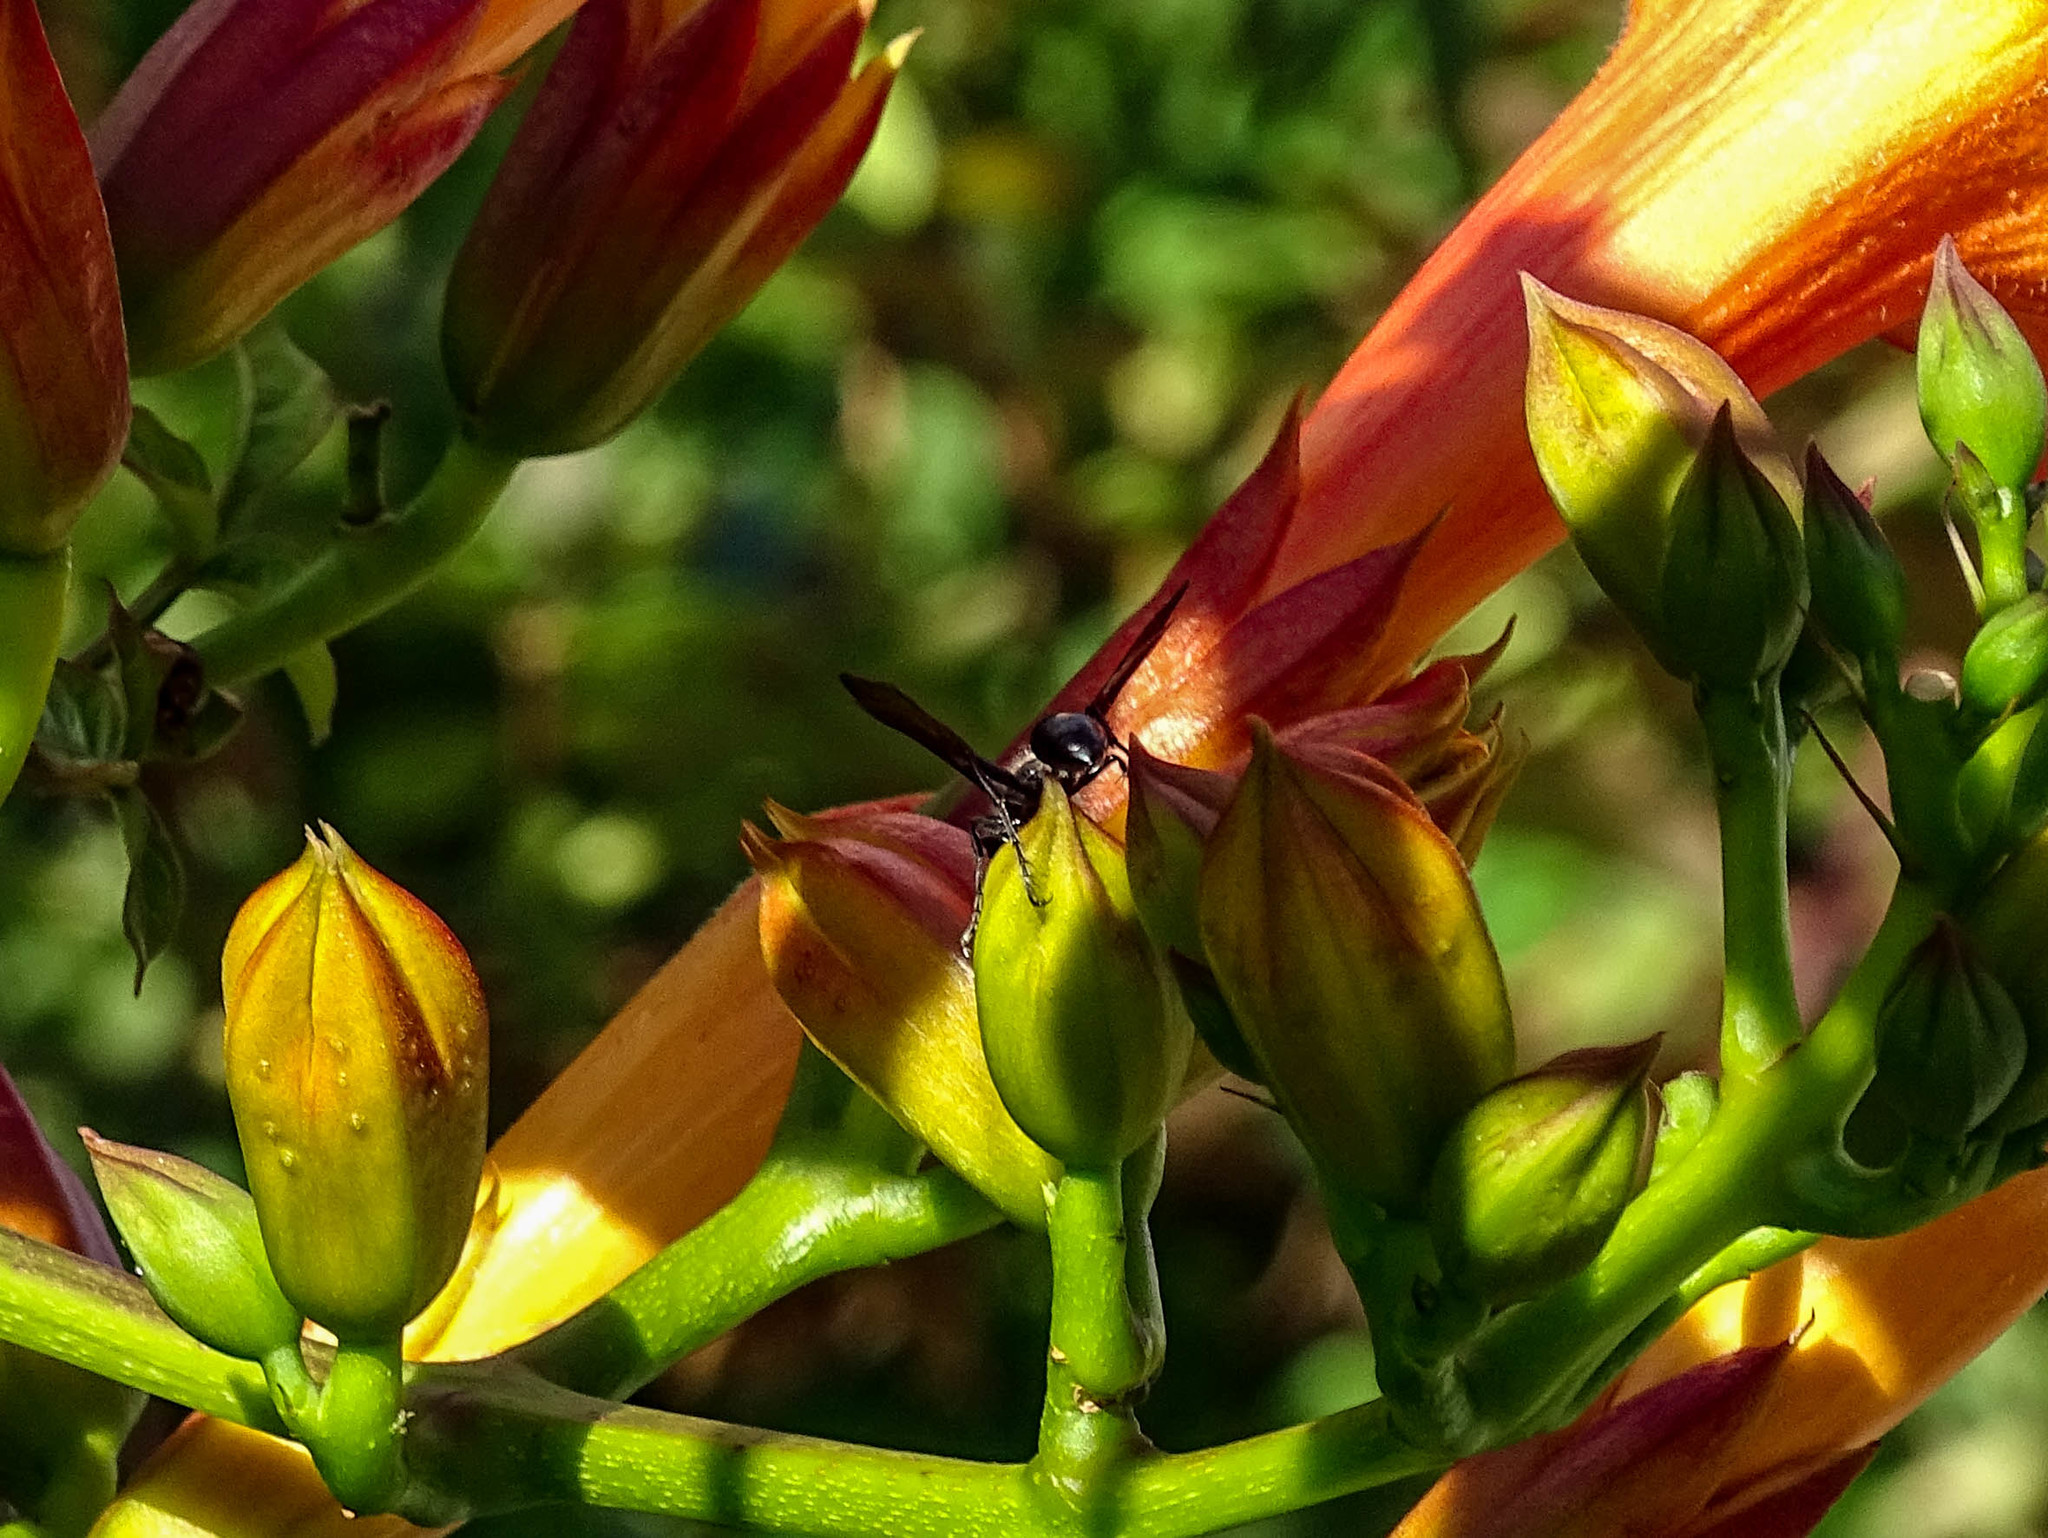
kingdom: Animalia
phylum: Arthropoda
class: Insecta
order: Hymenoptera
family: Sphecidae
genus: Isodontia
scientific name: Isodontia mexicana
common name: Mud dauber
